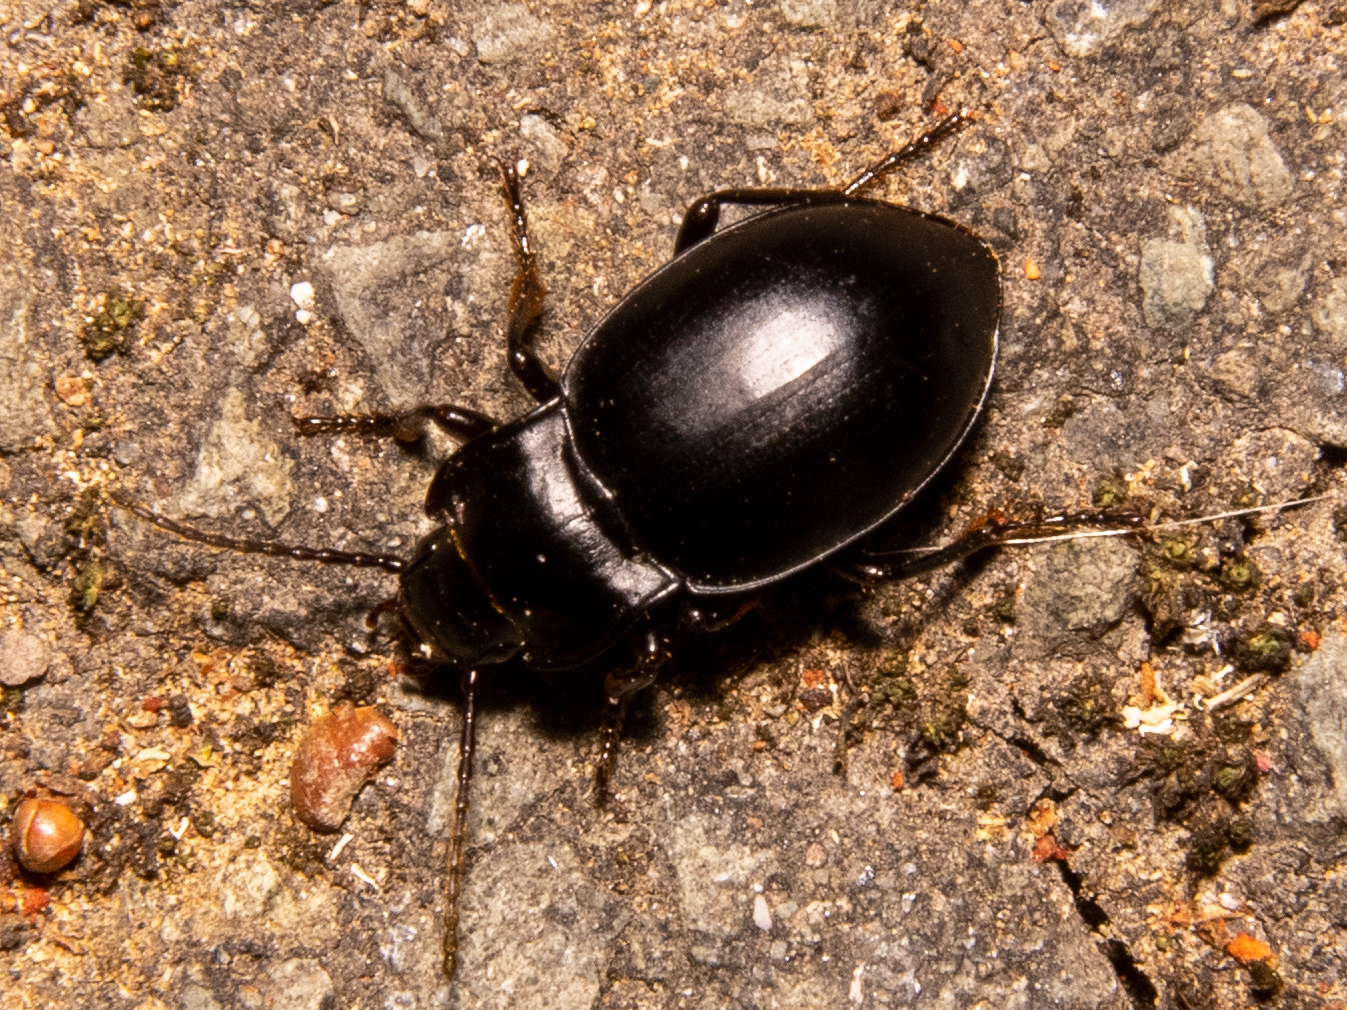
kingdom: Animalia
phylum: Arthropoda
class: Insecta
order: Coleoptera
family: Carabidae
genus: Metrius
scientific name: Metrius contractus
